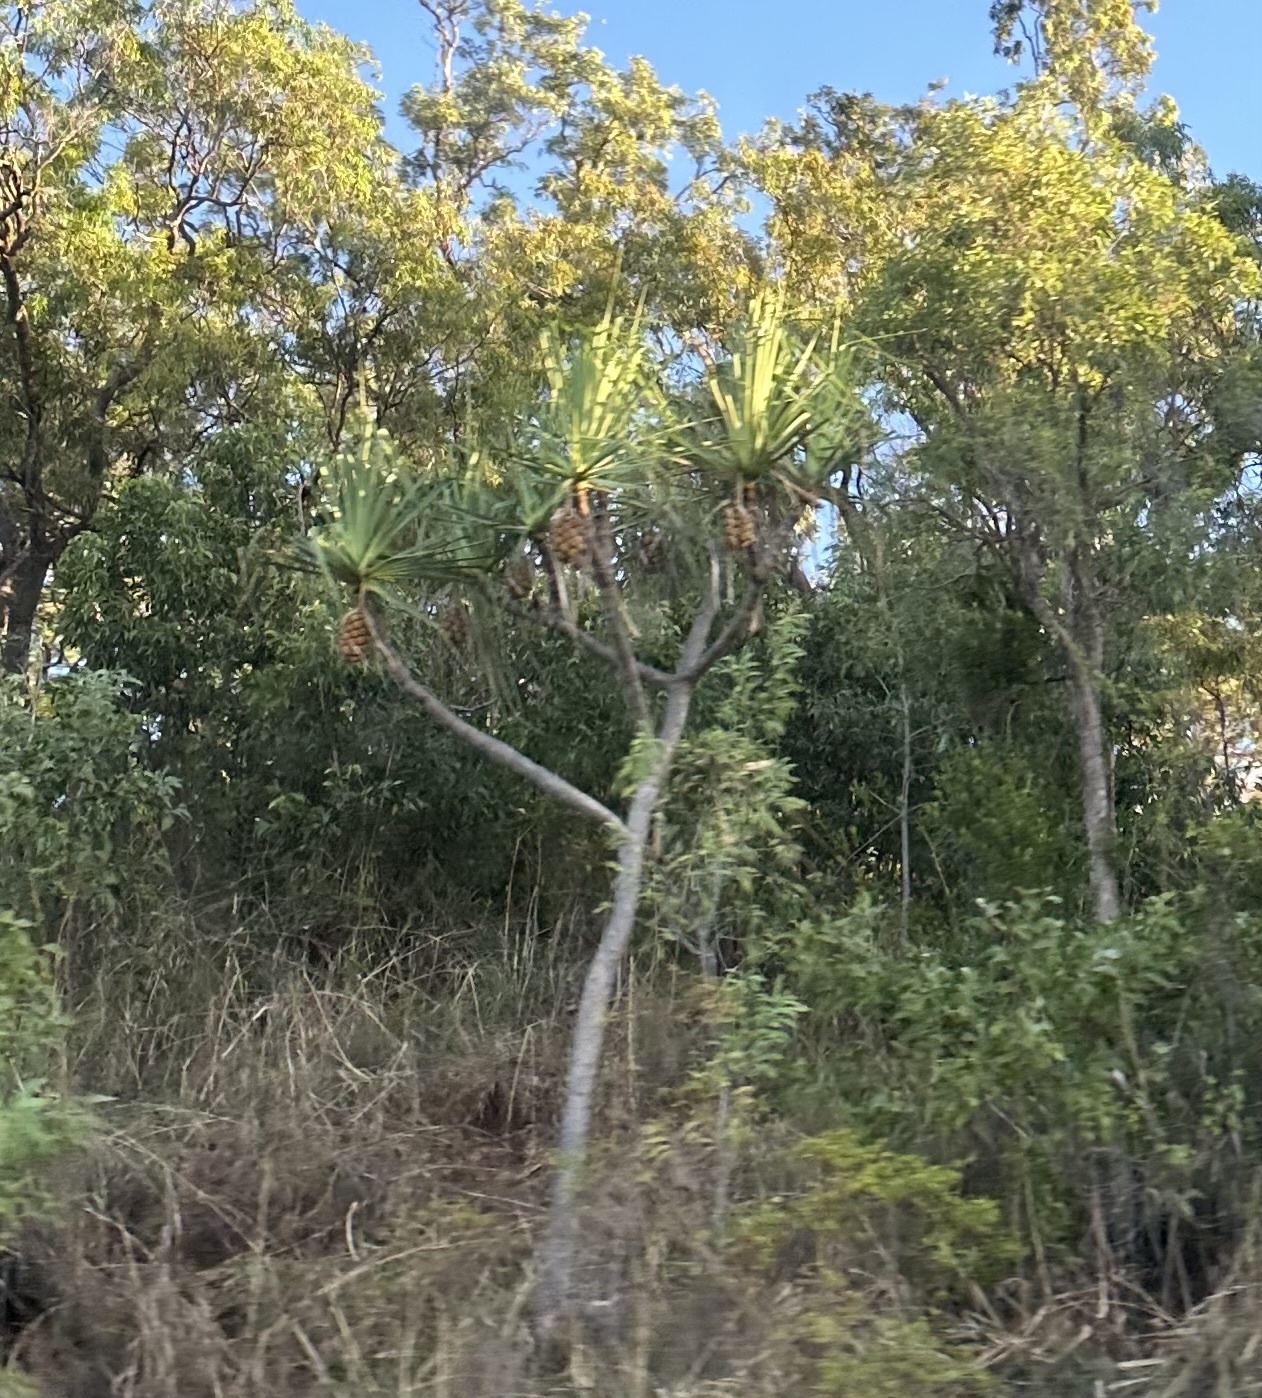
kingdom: Plantae
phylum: Tracheophyta
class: Liliopsida
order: Pandanales
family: Pandanaceae
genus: Pandanus
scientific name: Pandanus cookii
